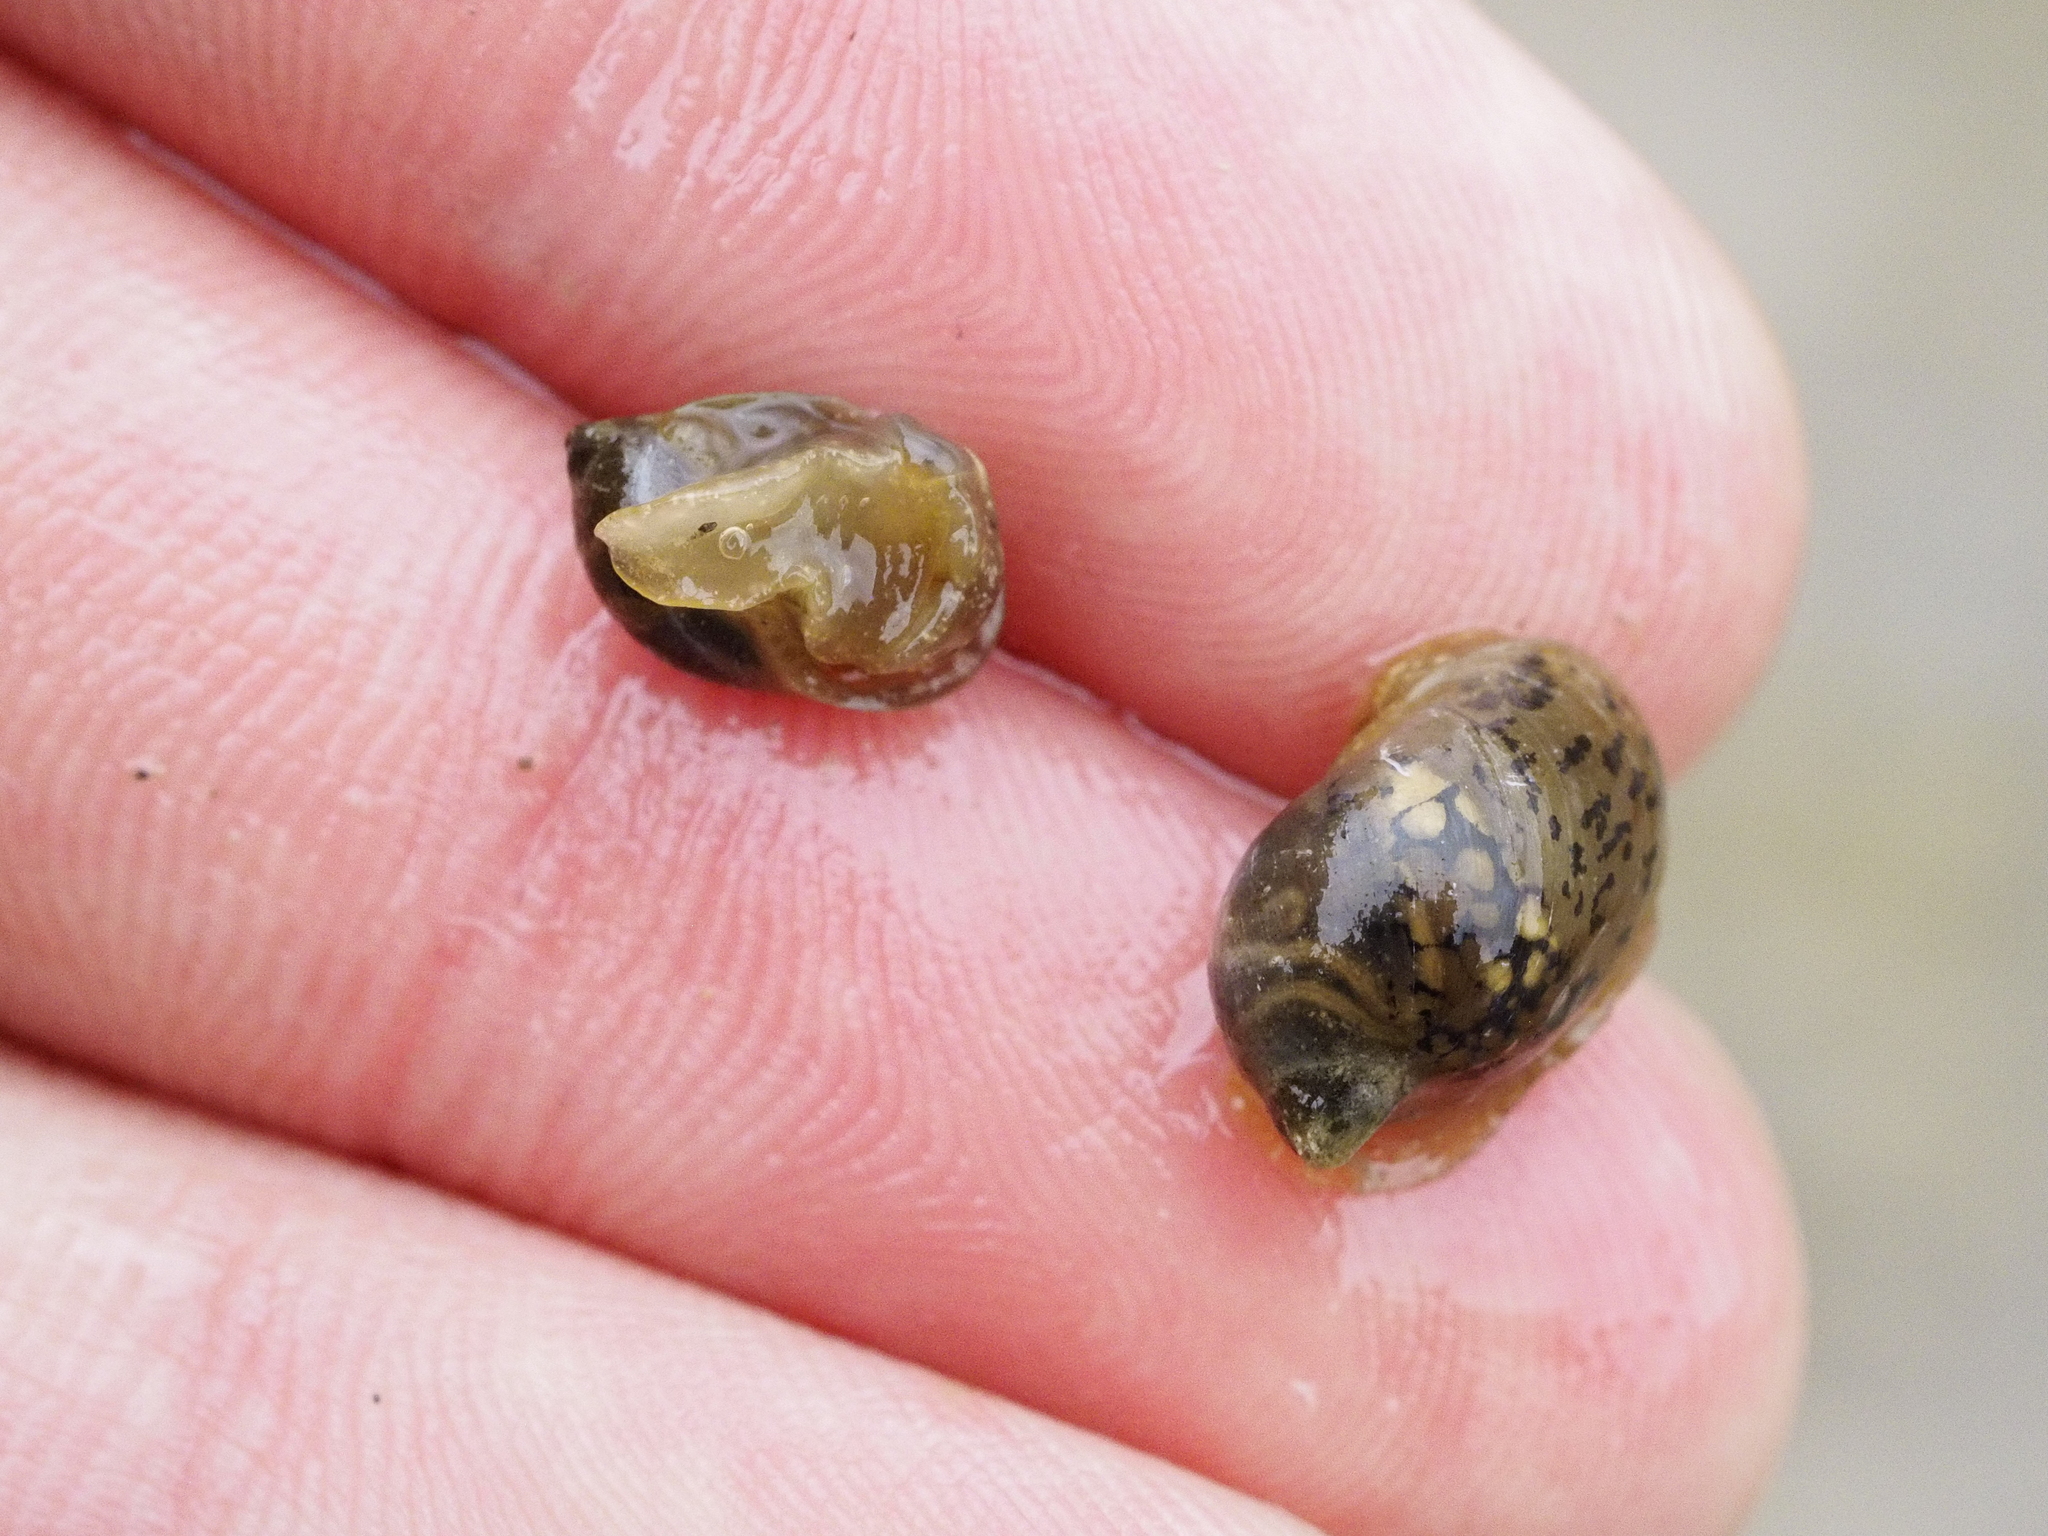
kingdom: Animalia
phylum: Mollusca
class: Gastropoda
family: Lymnaeidae
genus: Radix
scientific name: Radix auricularia
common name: Ear pond snail
